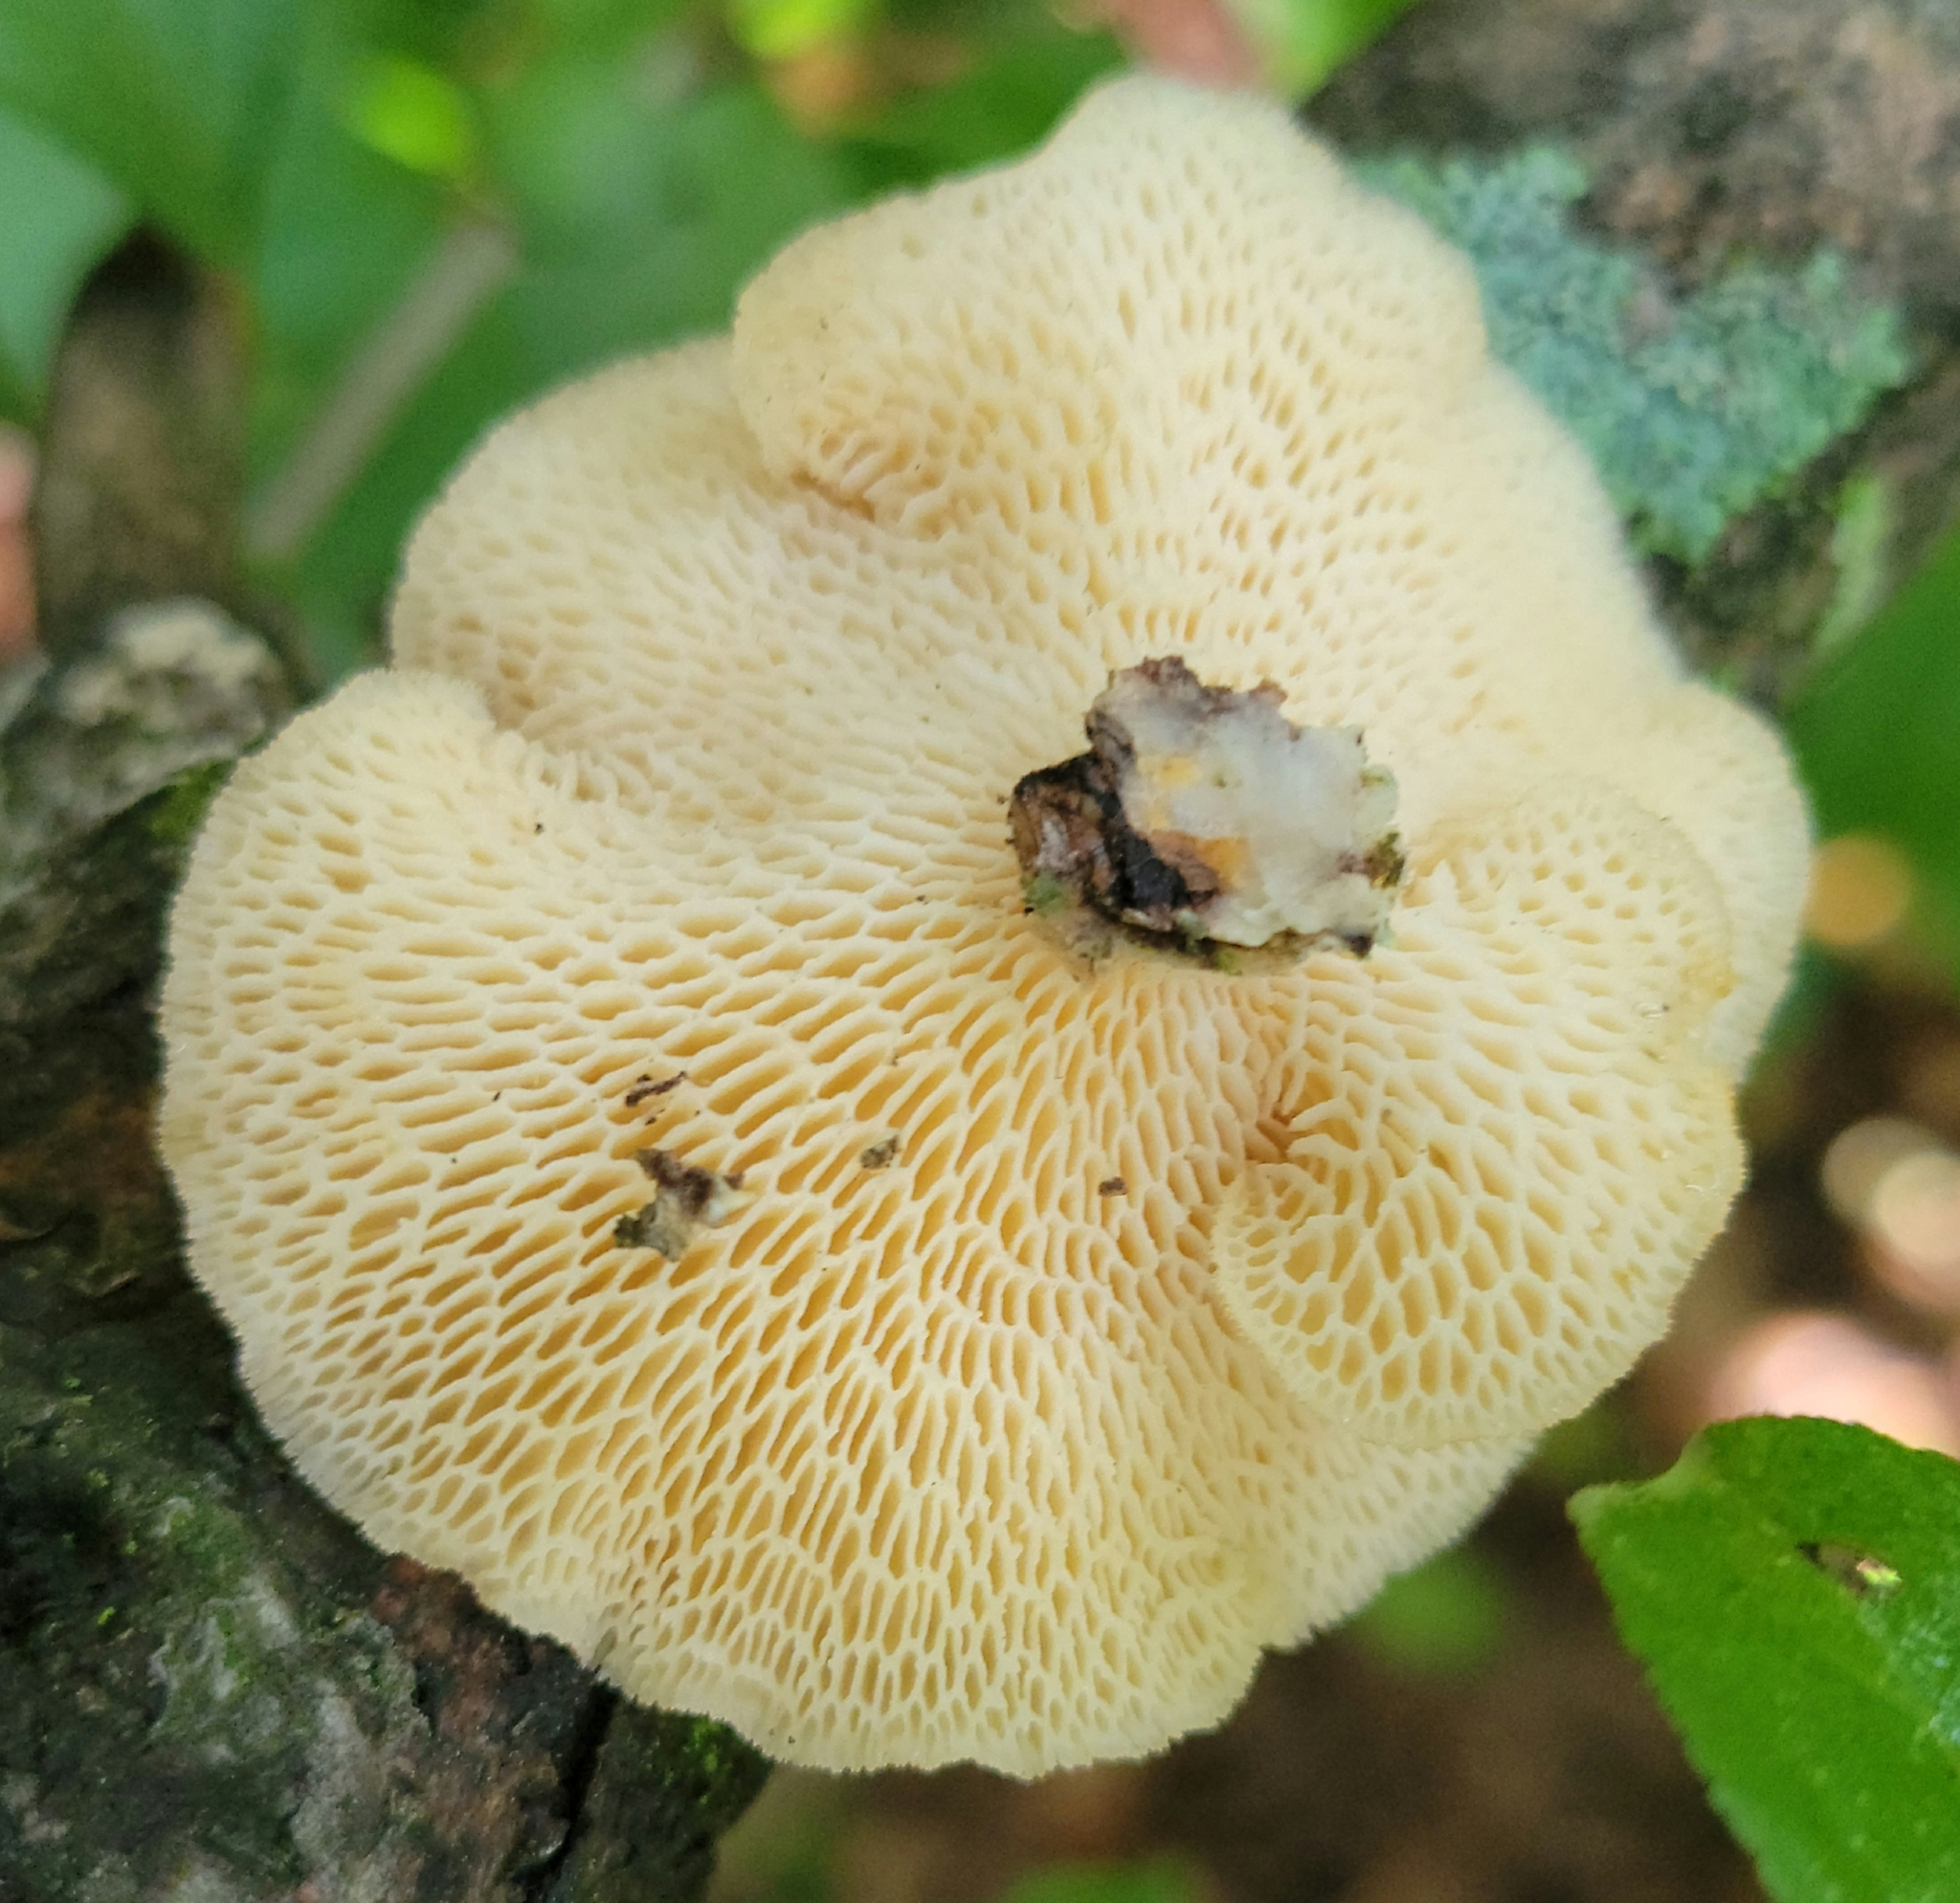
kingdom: Fungi
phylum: Basidiomycota
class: Agaricomycetes
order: Polyporales
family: Polyporaceae
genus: Neofavolus
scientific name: Neofavolus alveolaris
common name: Hexagonal-pored polypore
